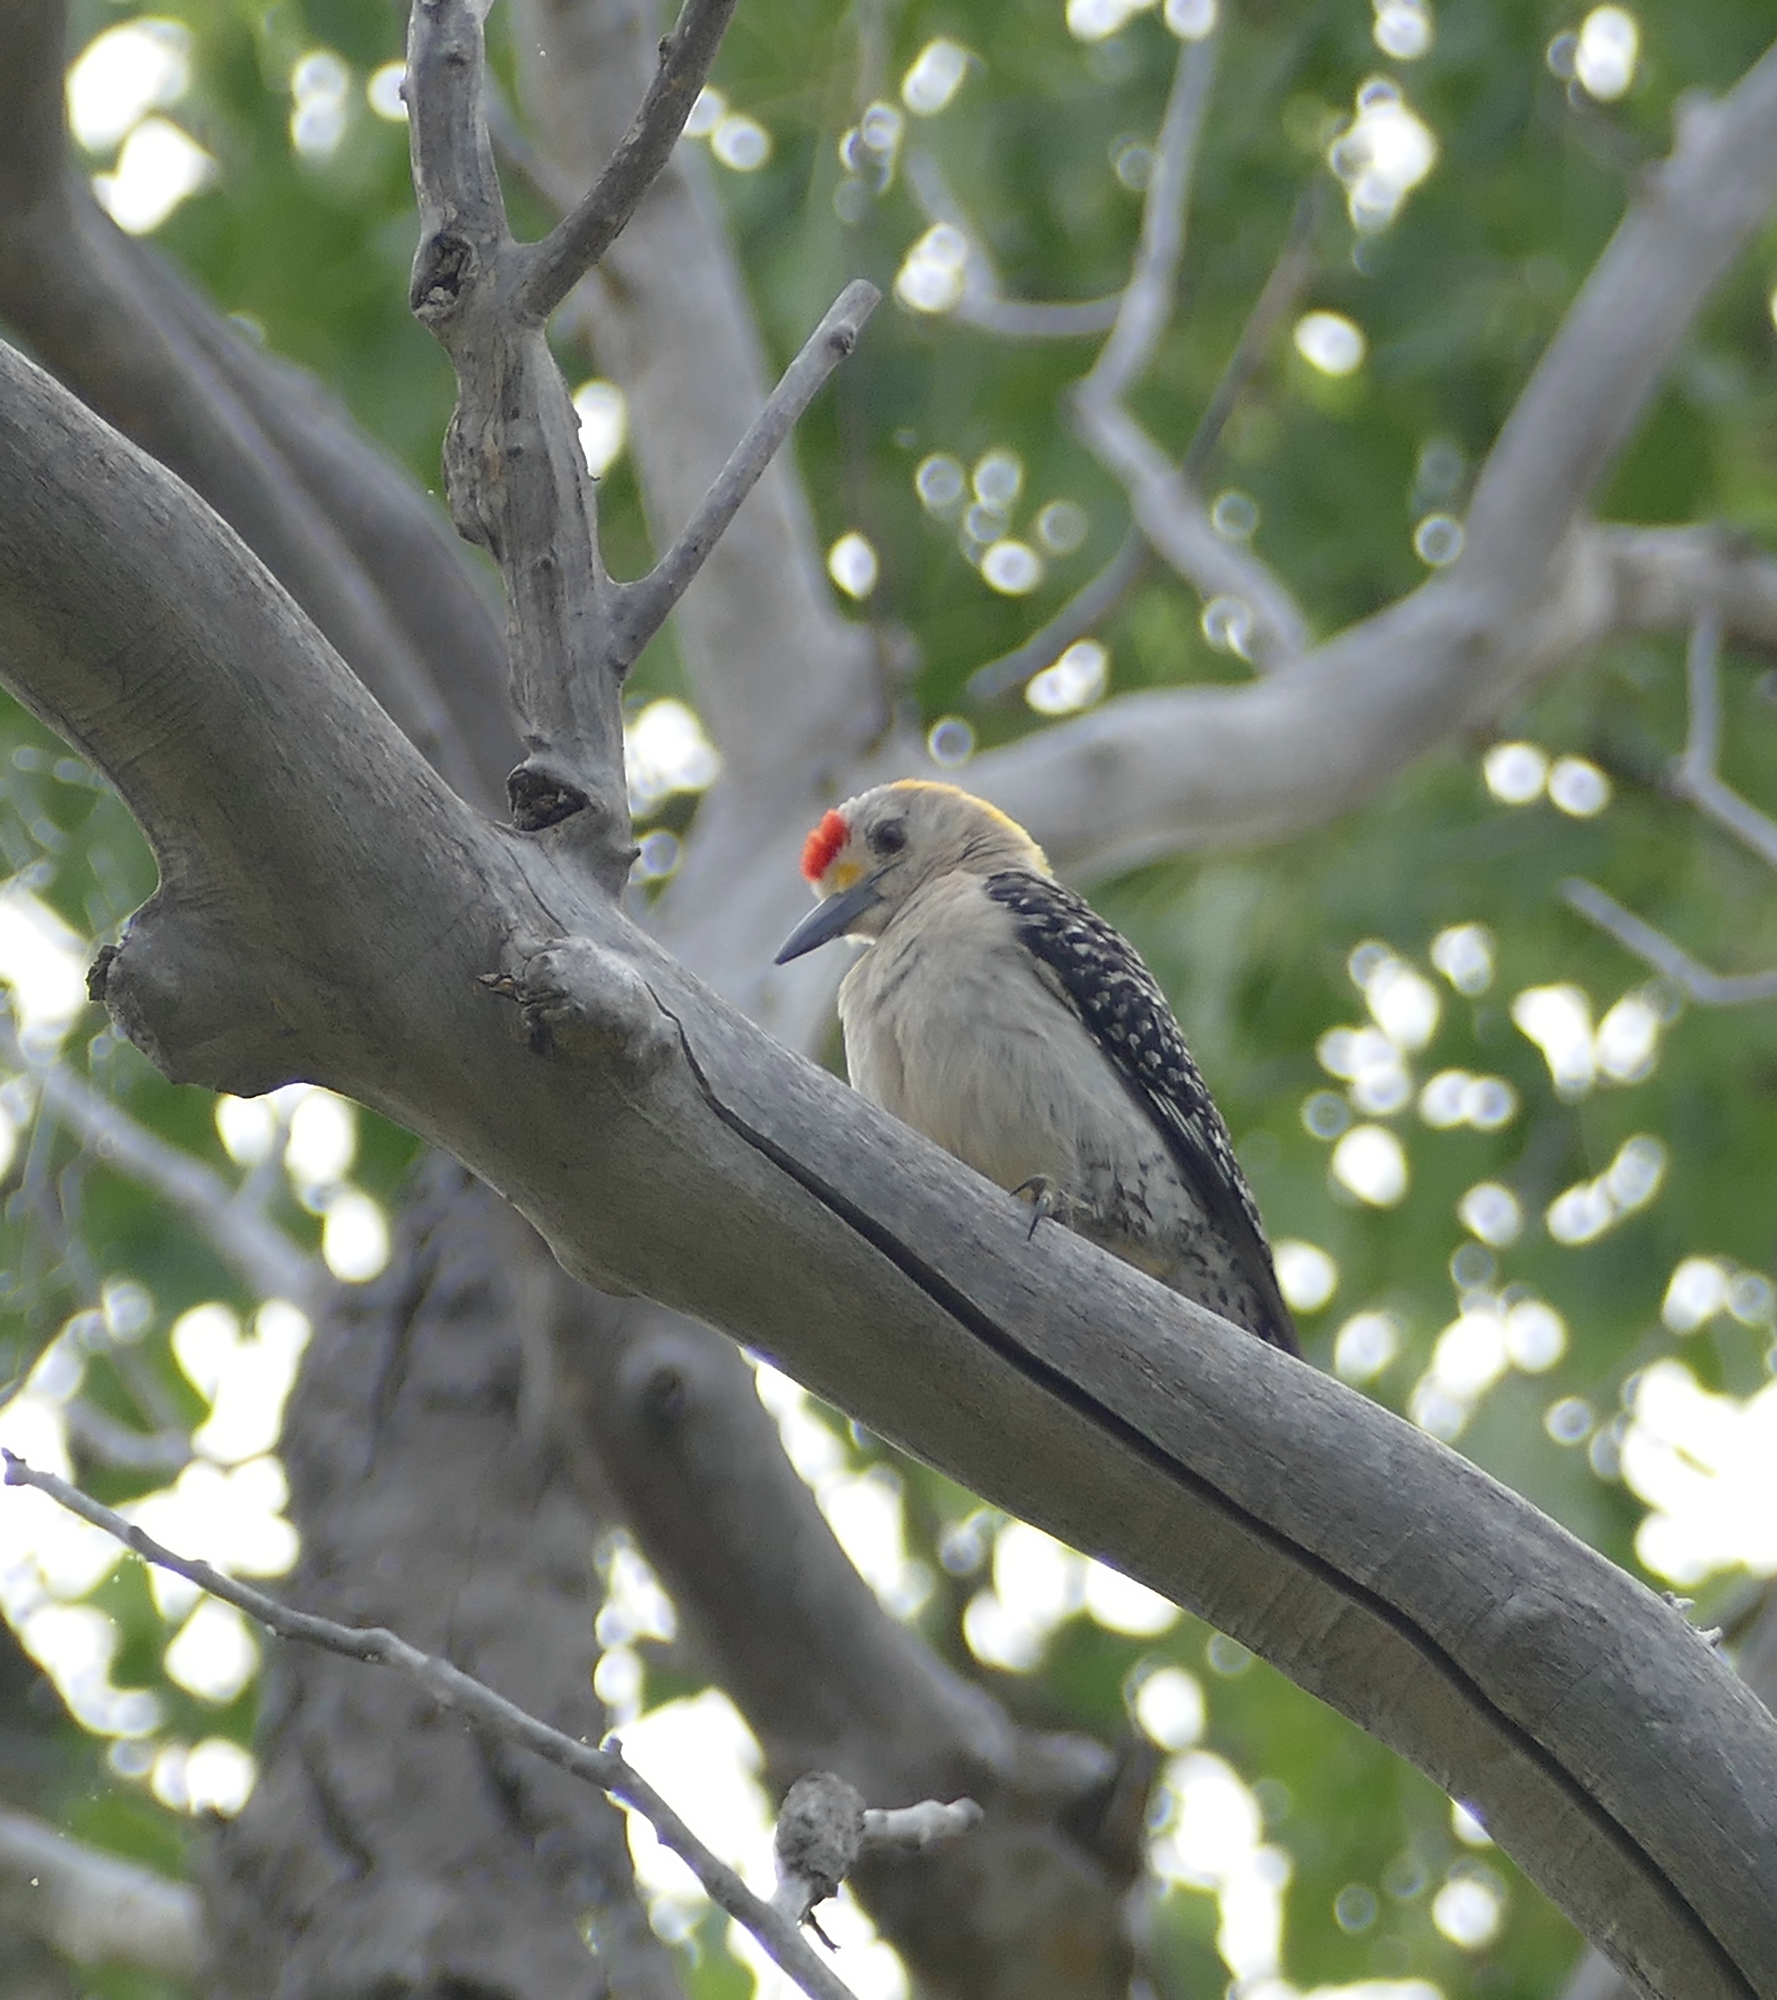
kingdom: Animalia
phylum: Chordata
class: Aves
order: Piciformes
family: Picidae
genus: Melanerpes
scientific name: Melanerpes aurifrons
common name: Golden-fronted woodpecker
